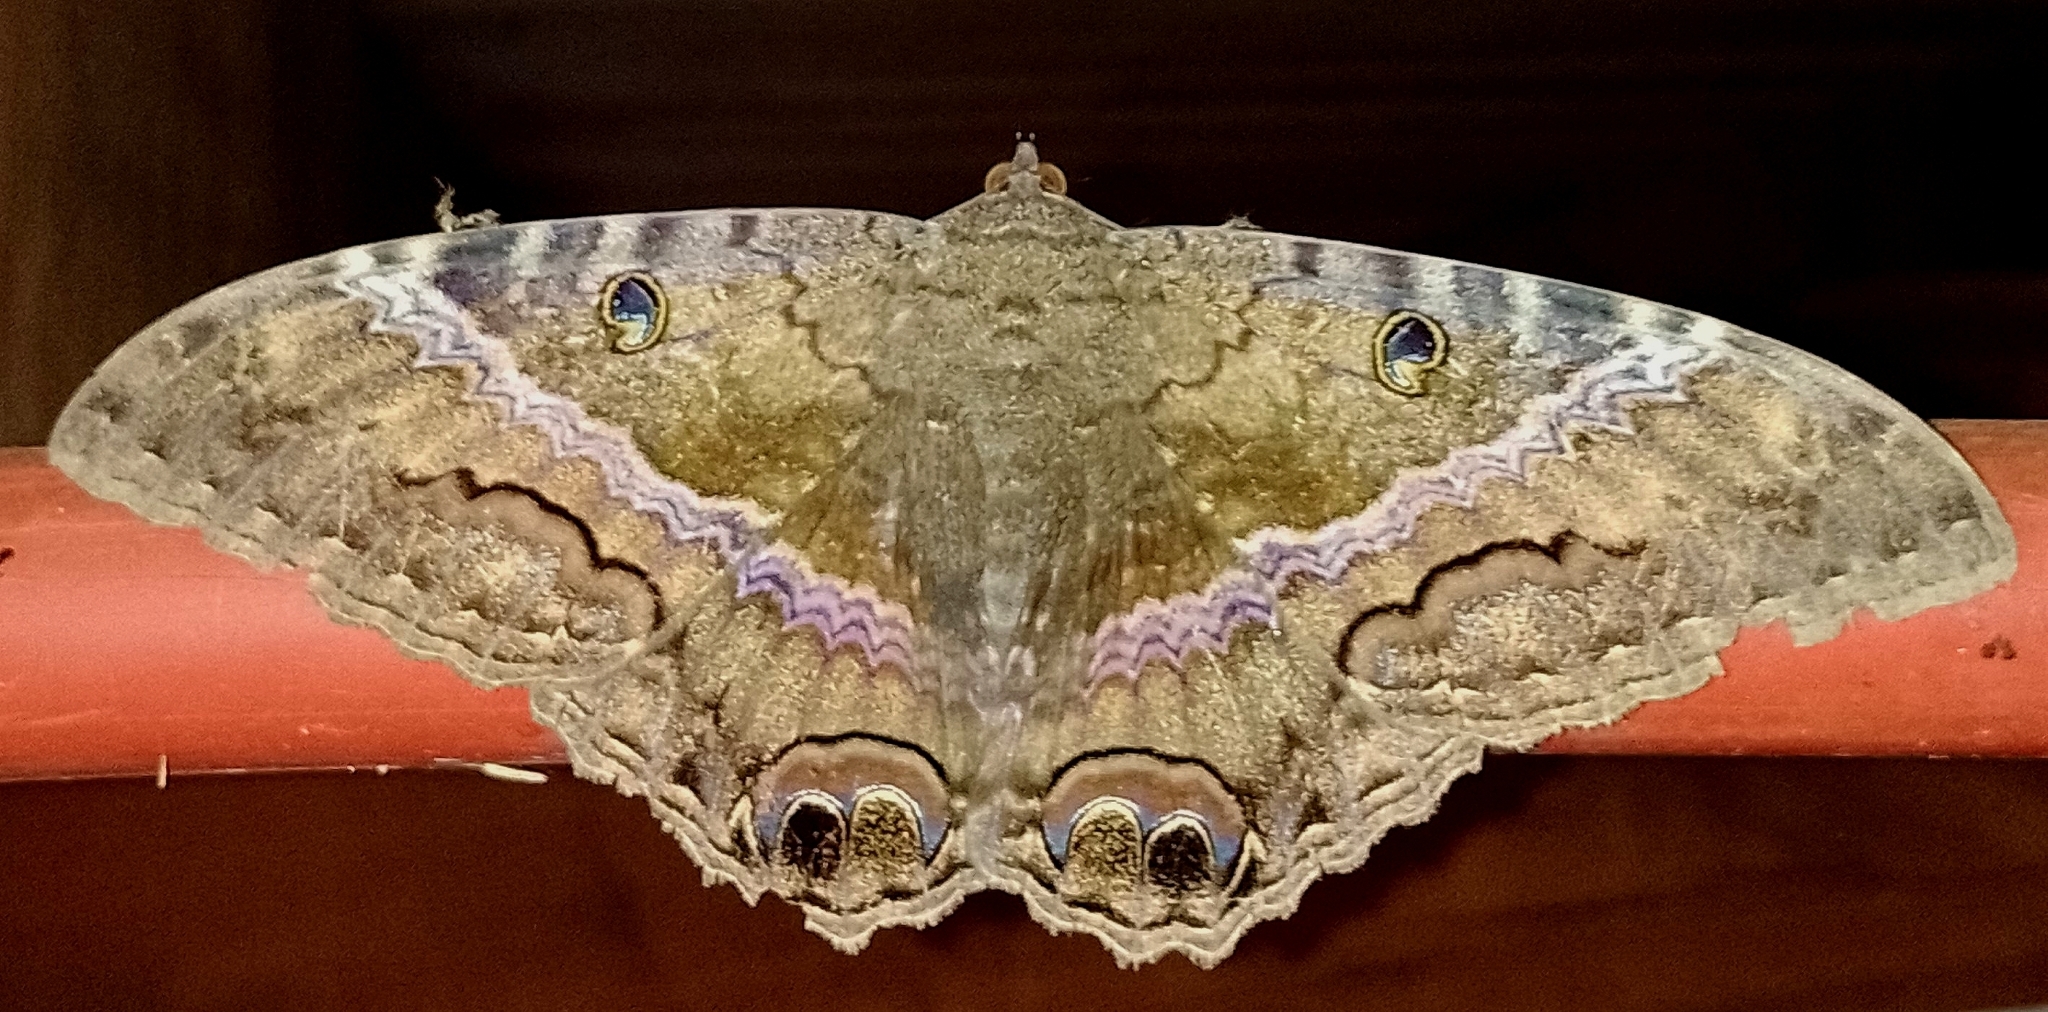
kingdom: Animalia
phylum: Arthropoda
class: Insecta
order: Lepidoptera
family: Erebidae
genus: Ascalapha
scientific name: Ascalapha odorata
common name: Black witch
